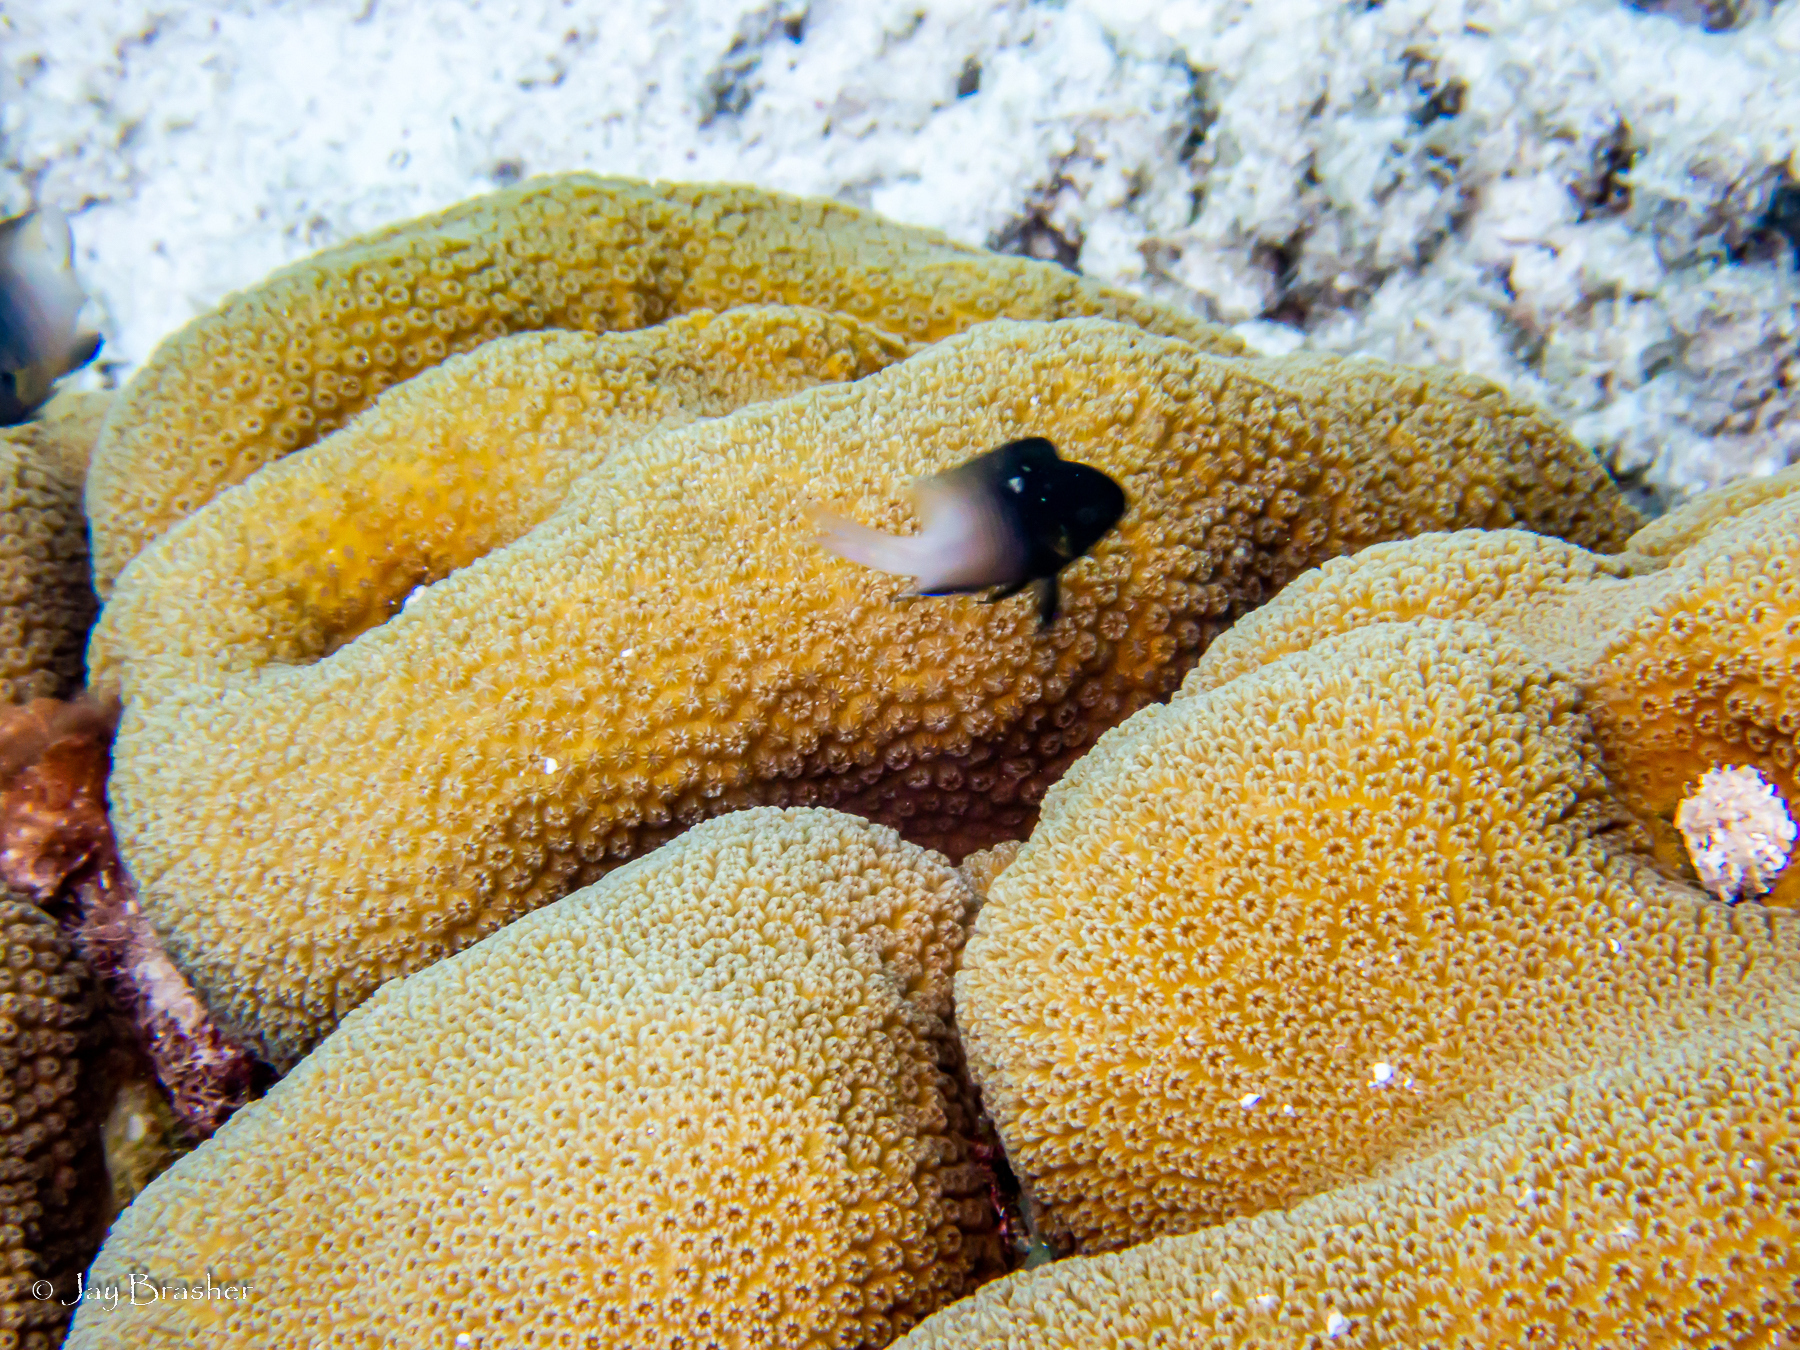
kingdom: Animalia
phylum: Chordata
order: Perciformes
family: Pomacentridae
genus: Stegastes
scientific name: Stegastes partitus
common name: Bicolor damselfish
